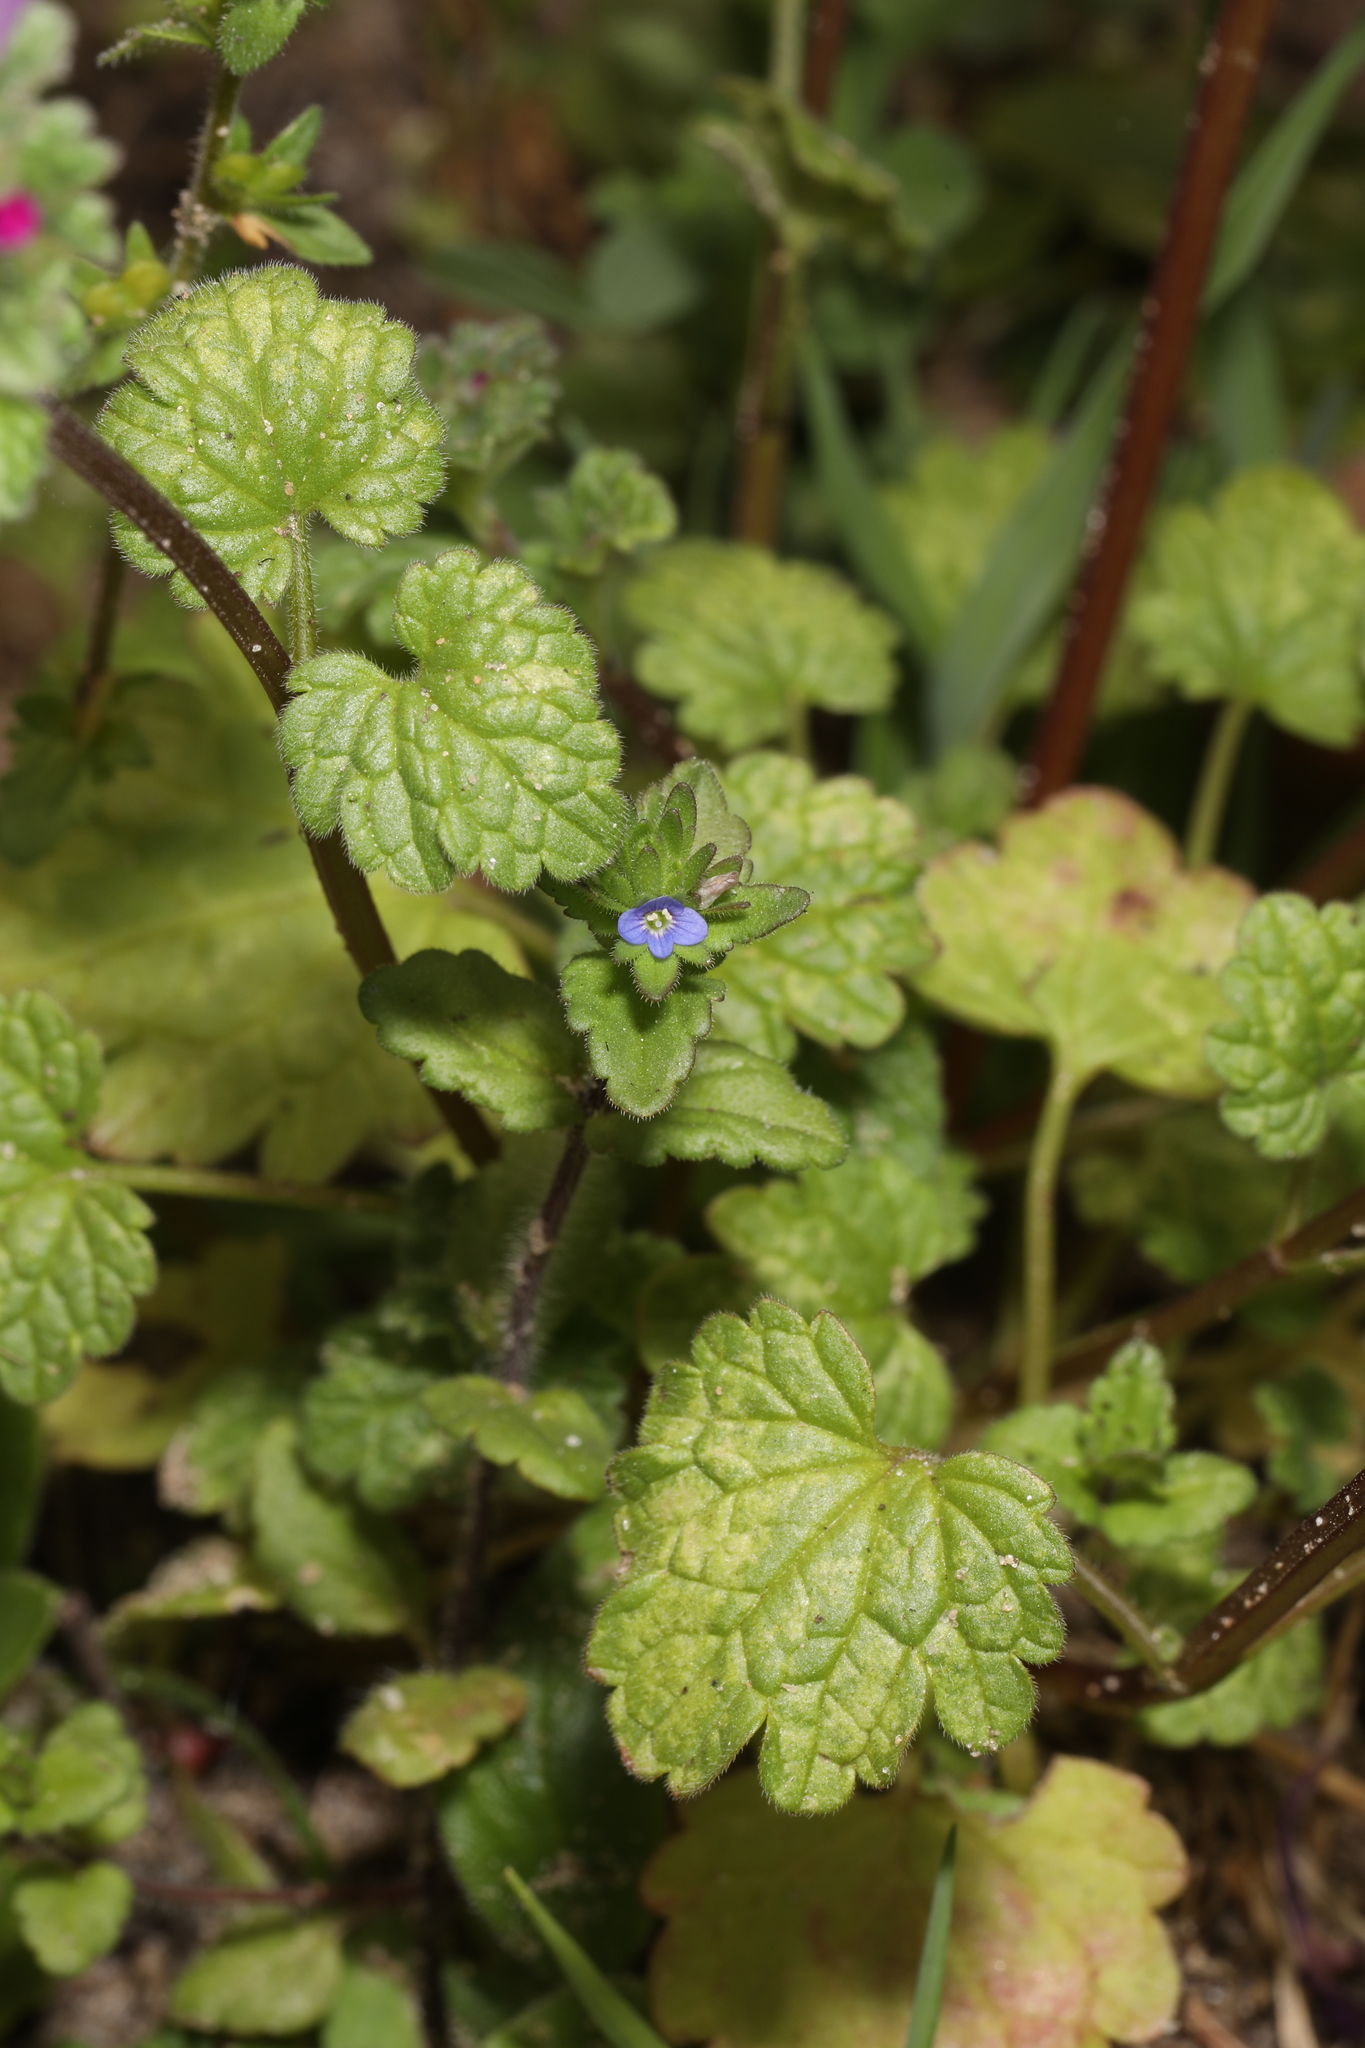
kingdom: Plantae
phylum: Tracheophyta
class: Magnoliopsida
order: Lamiales
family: Plantaginaceae
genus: Veronica
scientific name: Veronica arvensis
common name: Corn speedwell
